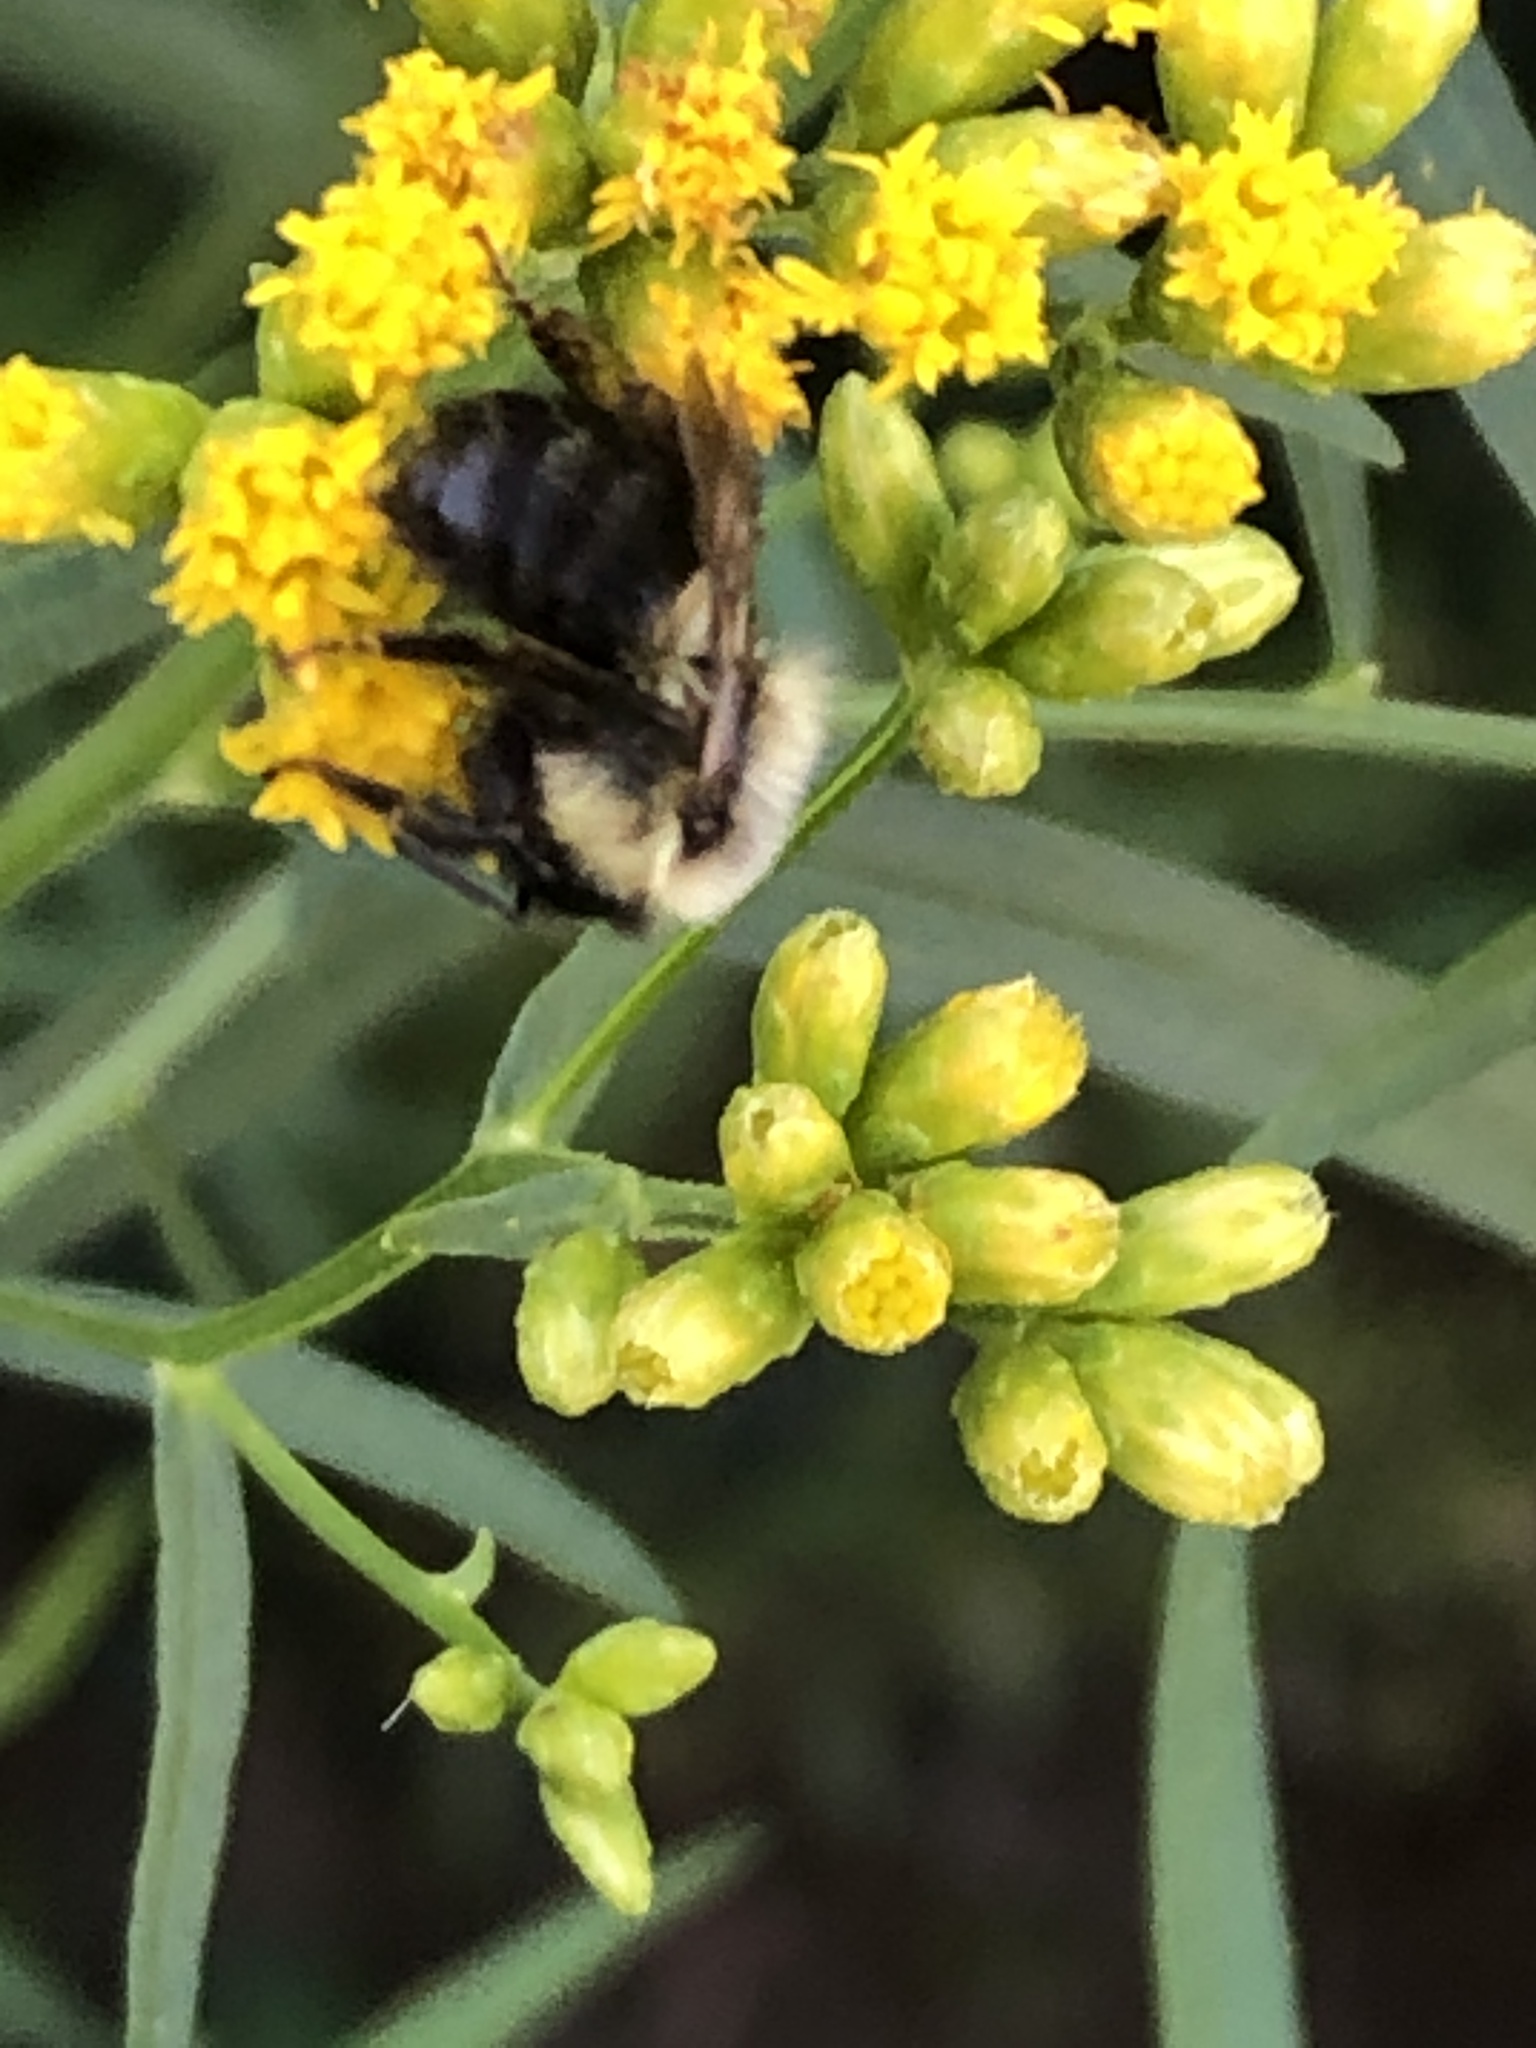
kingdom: Animalia
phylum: Arthropoda
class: Insecta
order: Hymenoptera
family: Apidae
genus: Bombus
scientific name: Bombus impatiens
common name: Common eastern bumble bee
